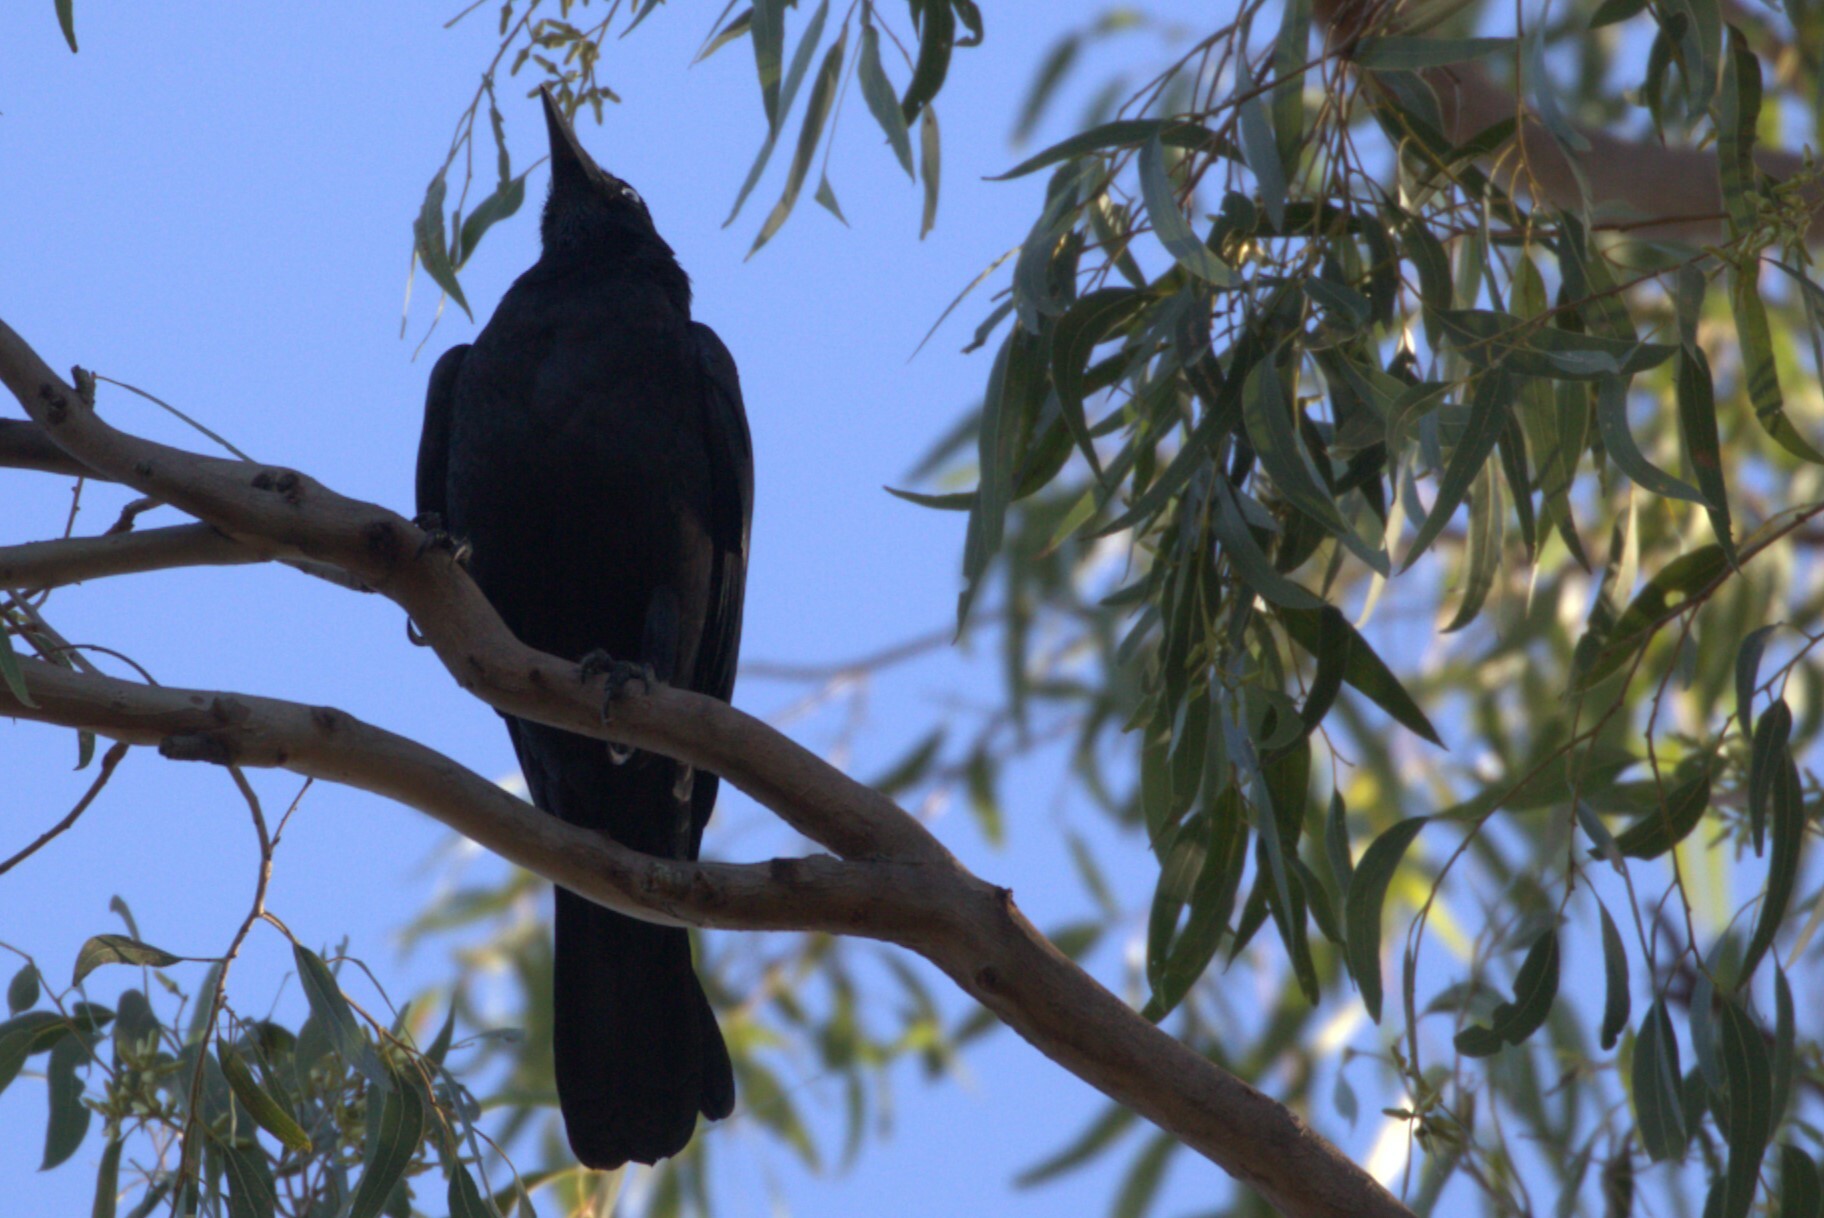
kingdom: Animalia
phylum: Chordata
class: Aves
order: Passeriformes
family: Corvidae
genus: Corvus
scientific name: Corvus orru
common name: Torresian crow
